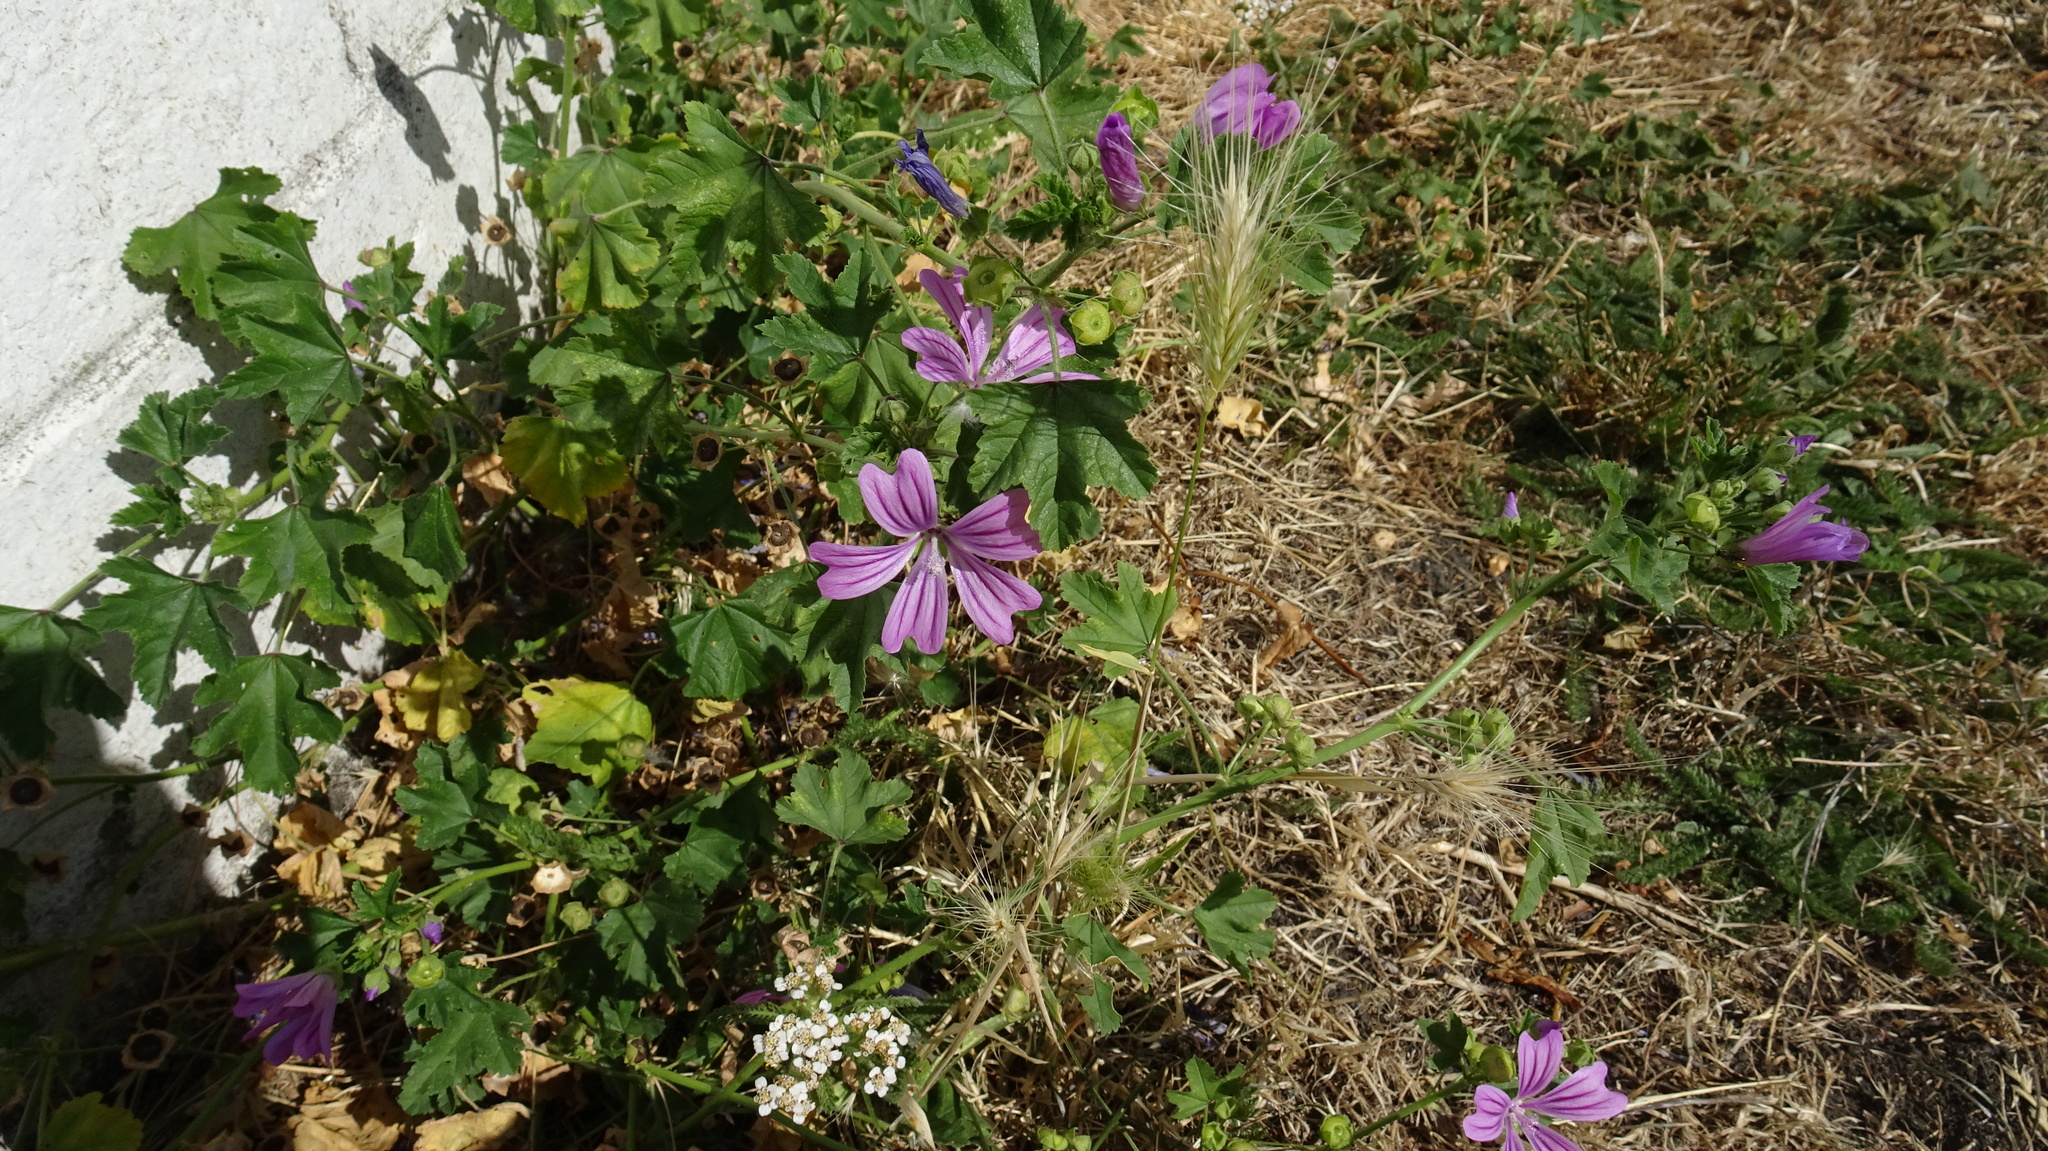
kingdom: Plantae
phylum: Tracheophyta
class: Magnoliopsida
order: Malvales
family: Malvaceae
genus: Malva
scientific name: Malva sylvestris
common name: Common mallow
